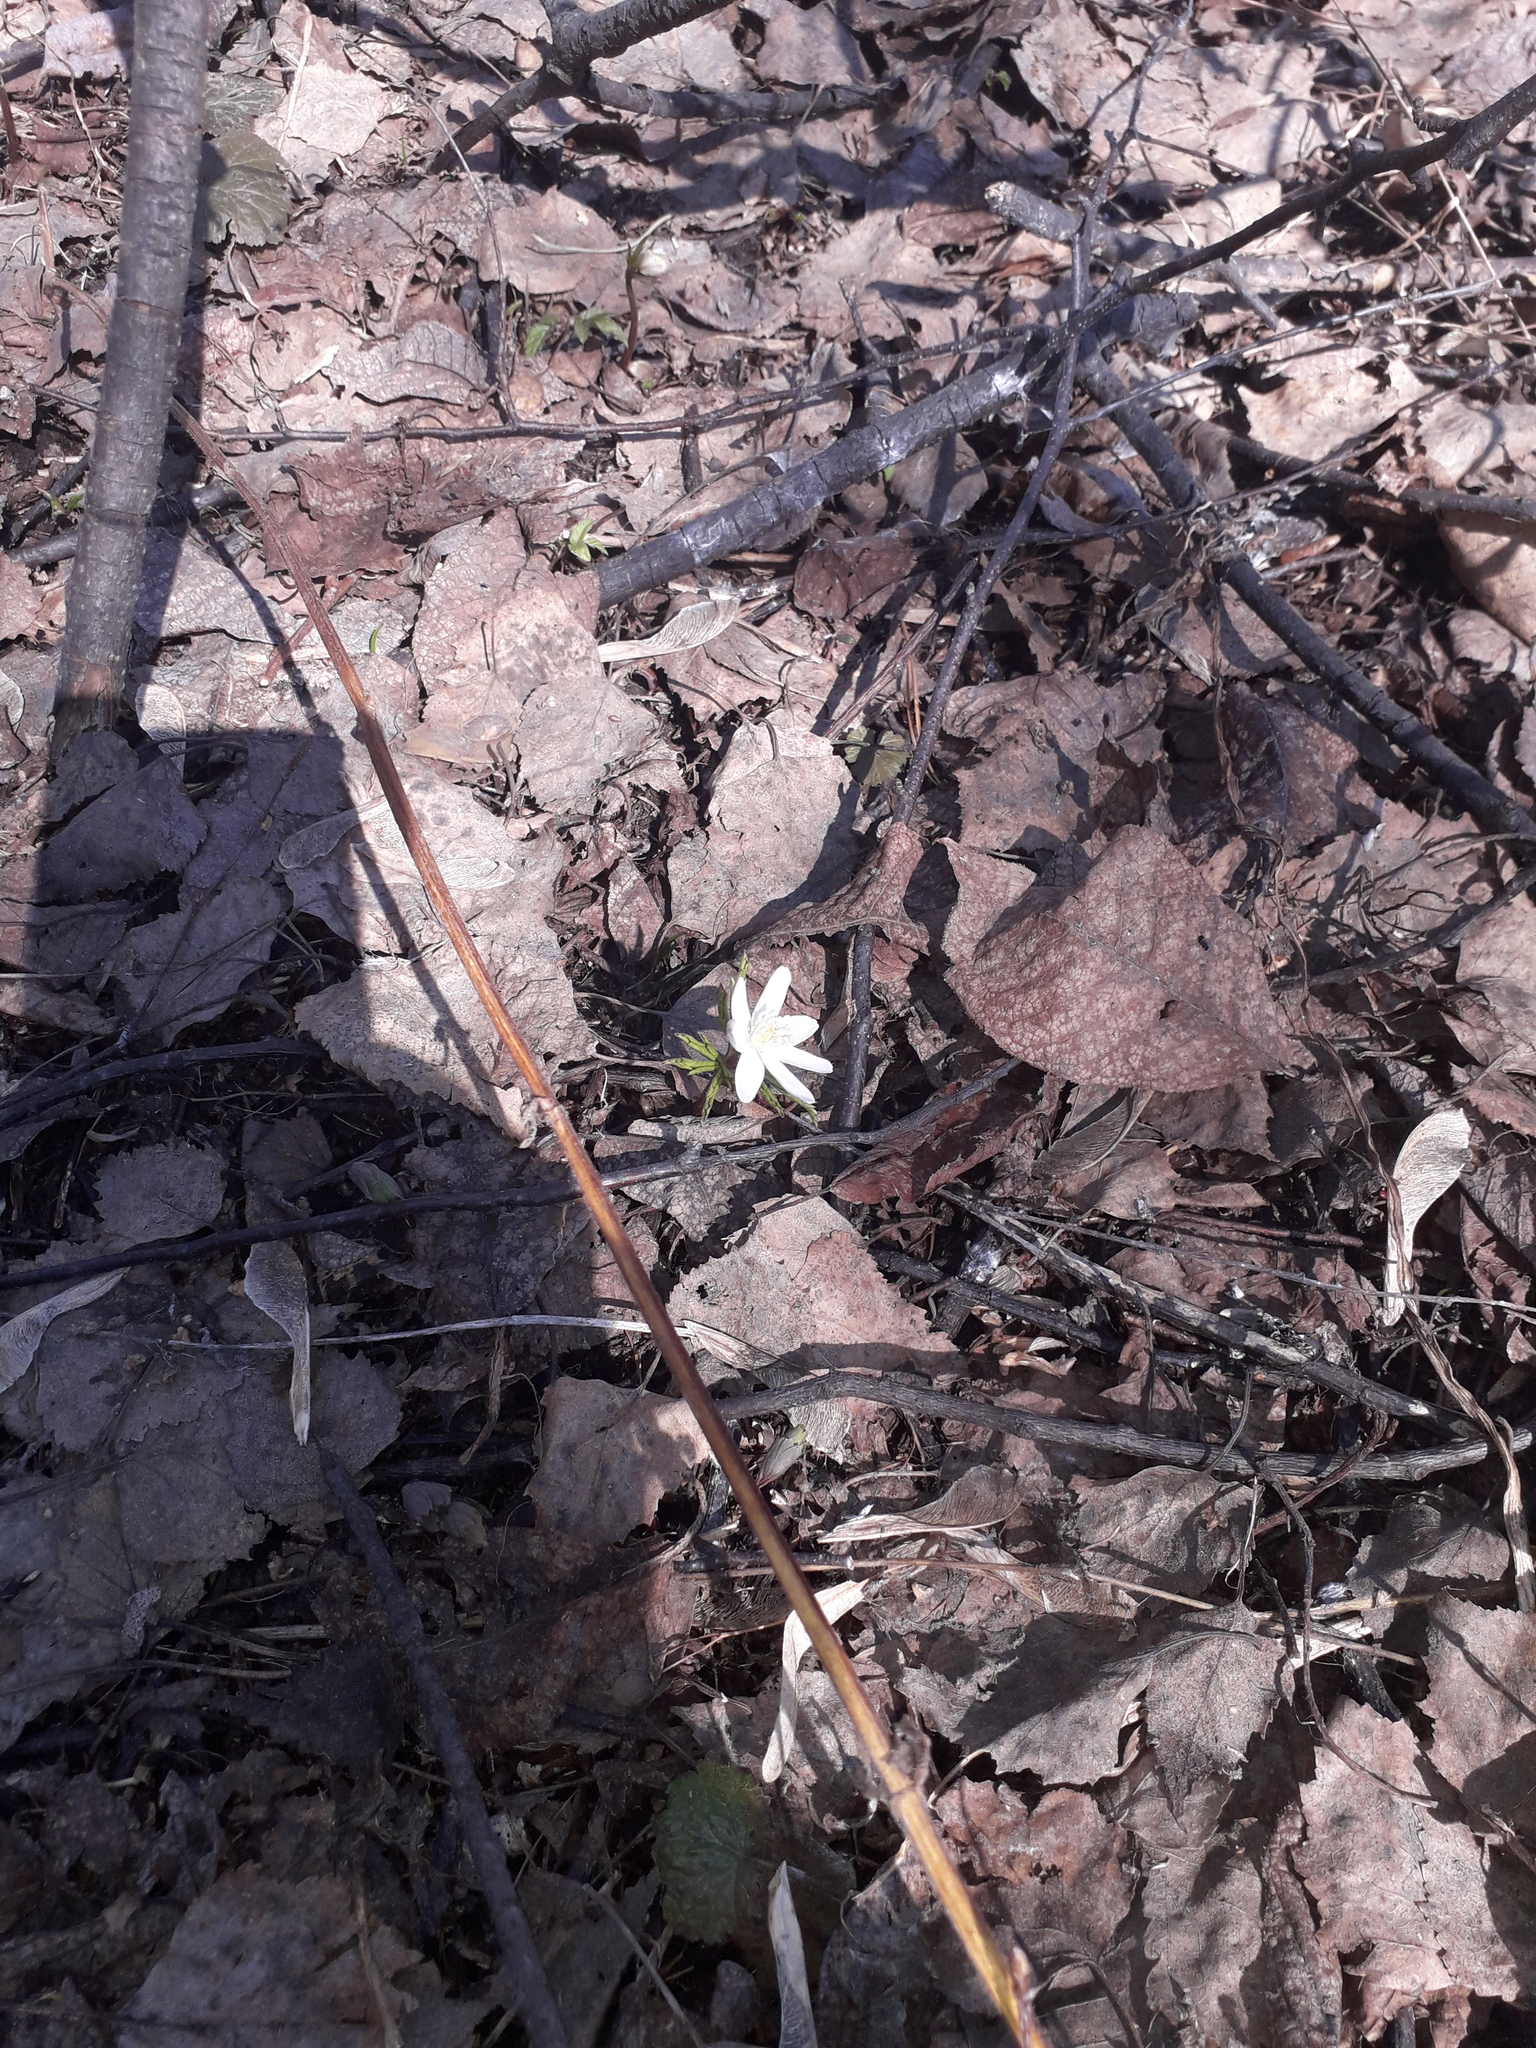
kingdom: Plantae
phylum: Tracheophyta
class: Magnoliopsida
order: Ranunculales
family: Ranunculaceae
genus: Anemone
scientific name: Anemone altaica
